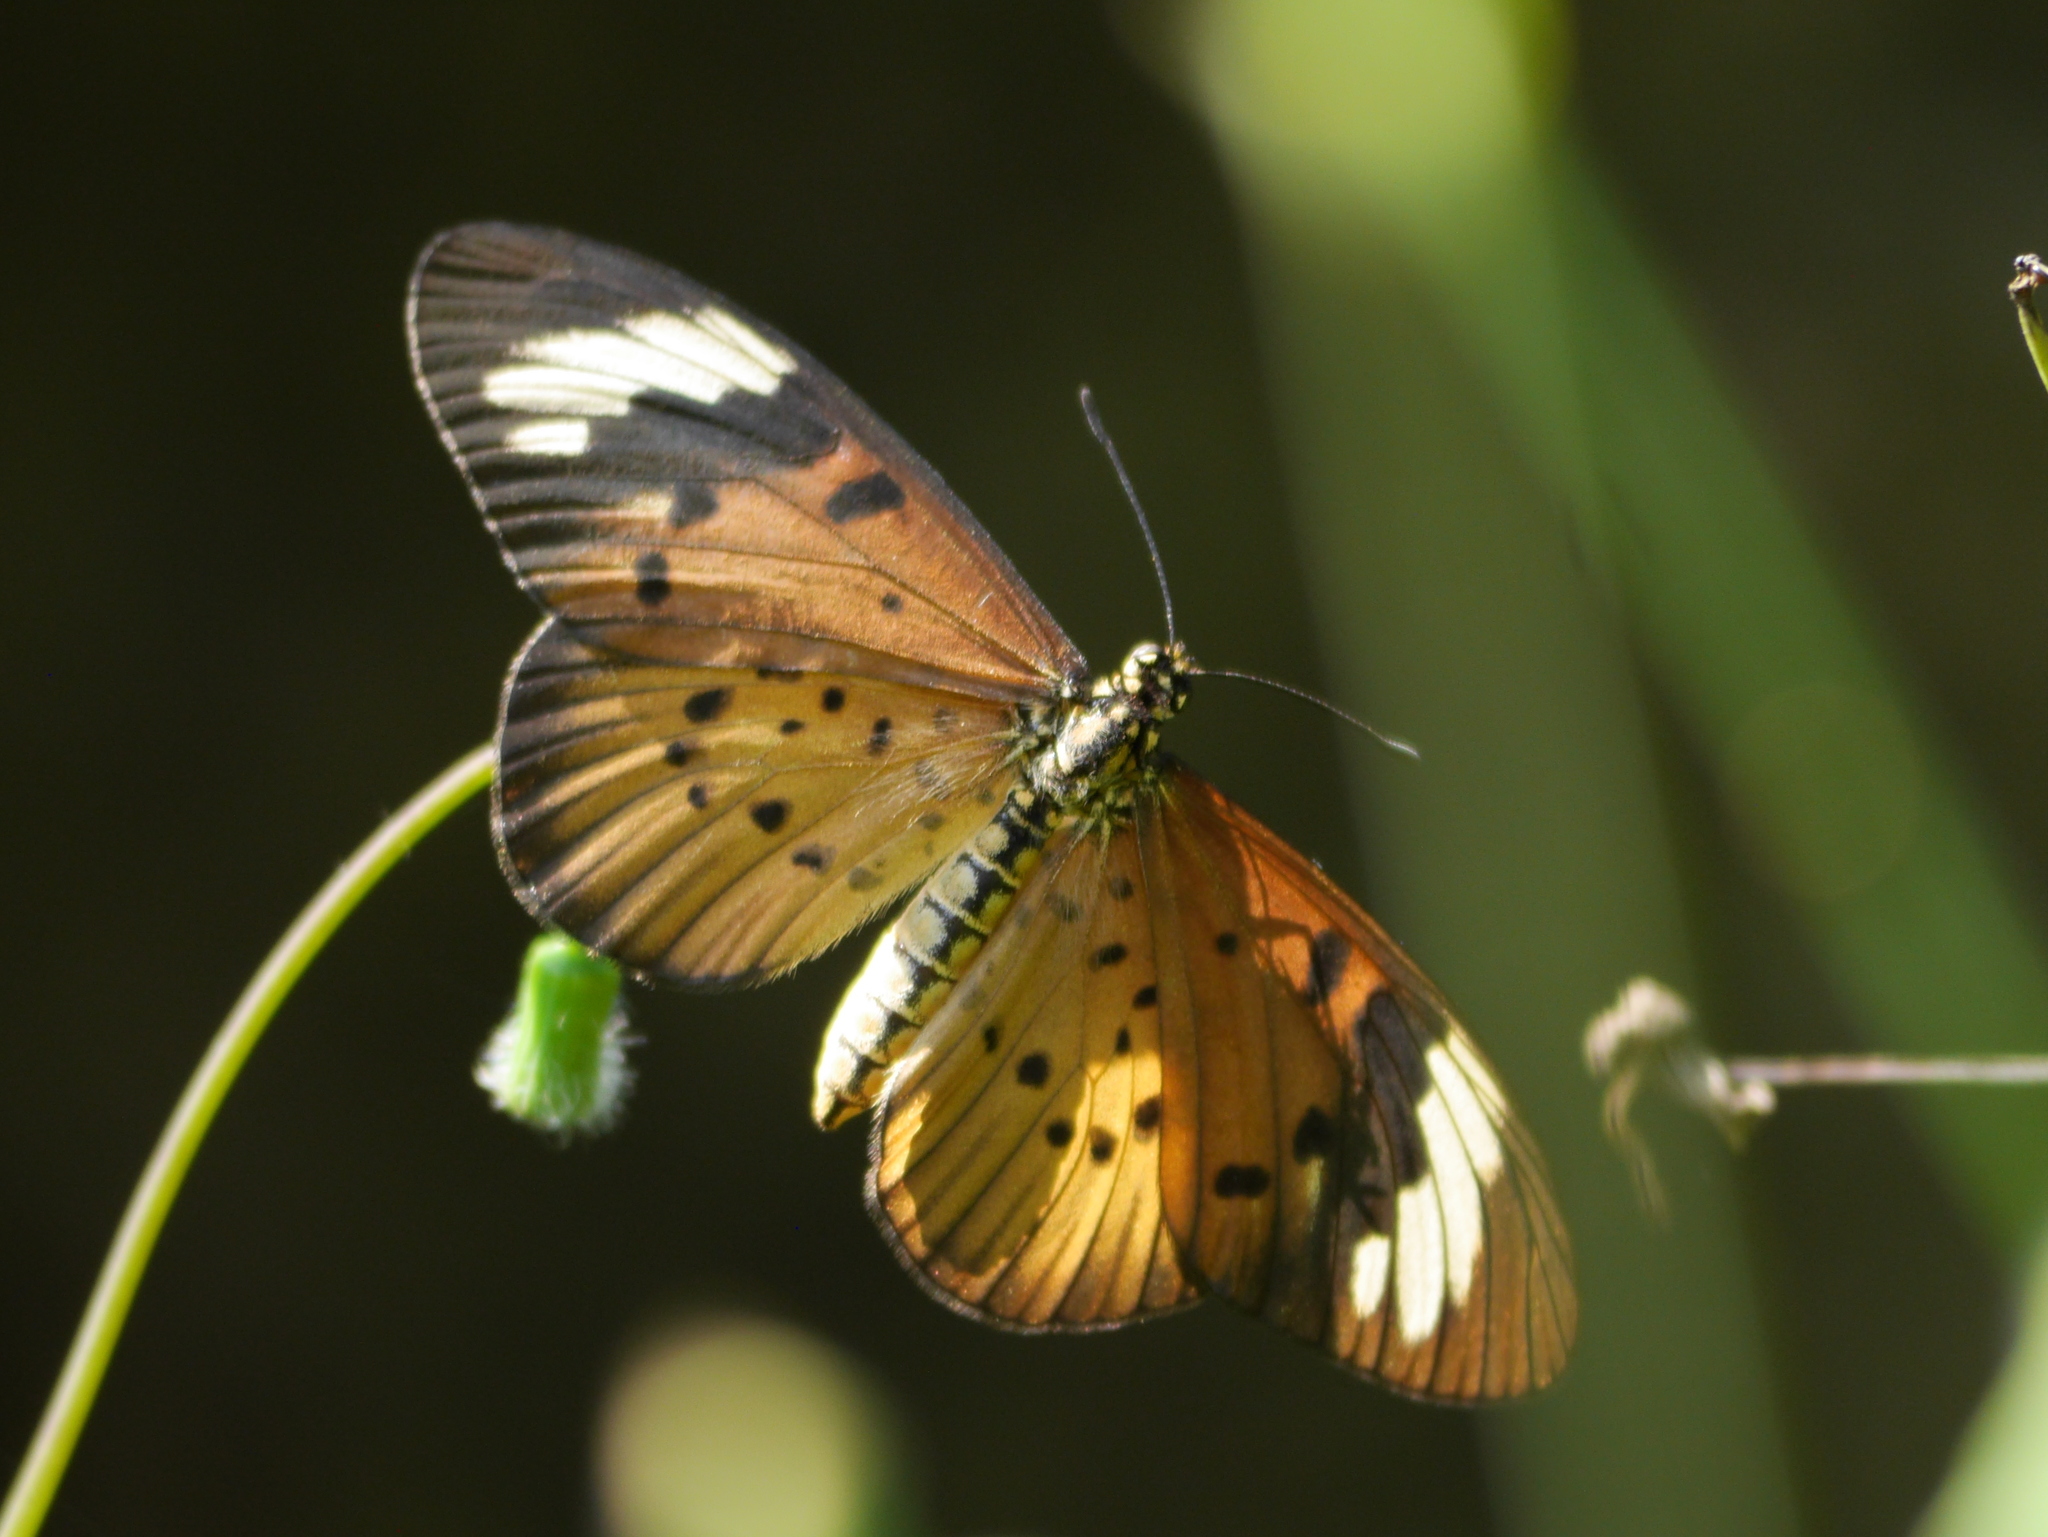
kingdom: Animalia
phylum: Arthropoda
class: Insecta
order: Lepidoptera
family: Nymphalidae
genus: Acraea
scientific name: Acraea Telchinia encedon
